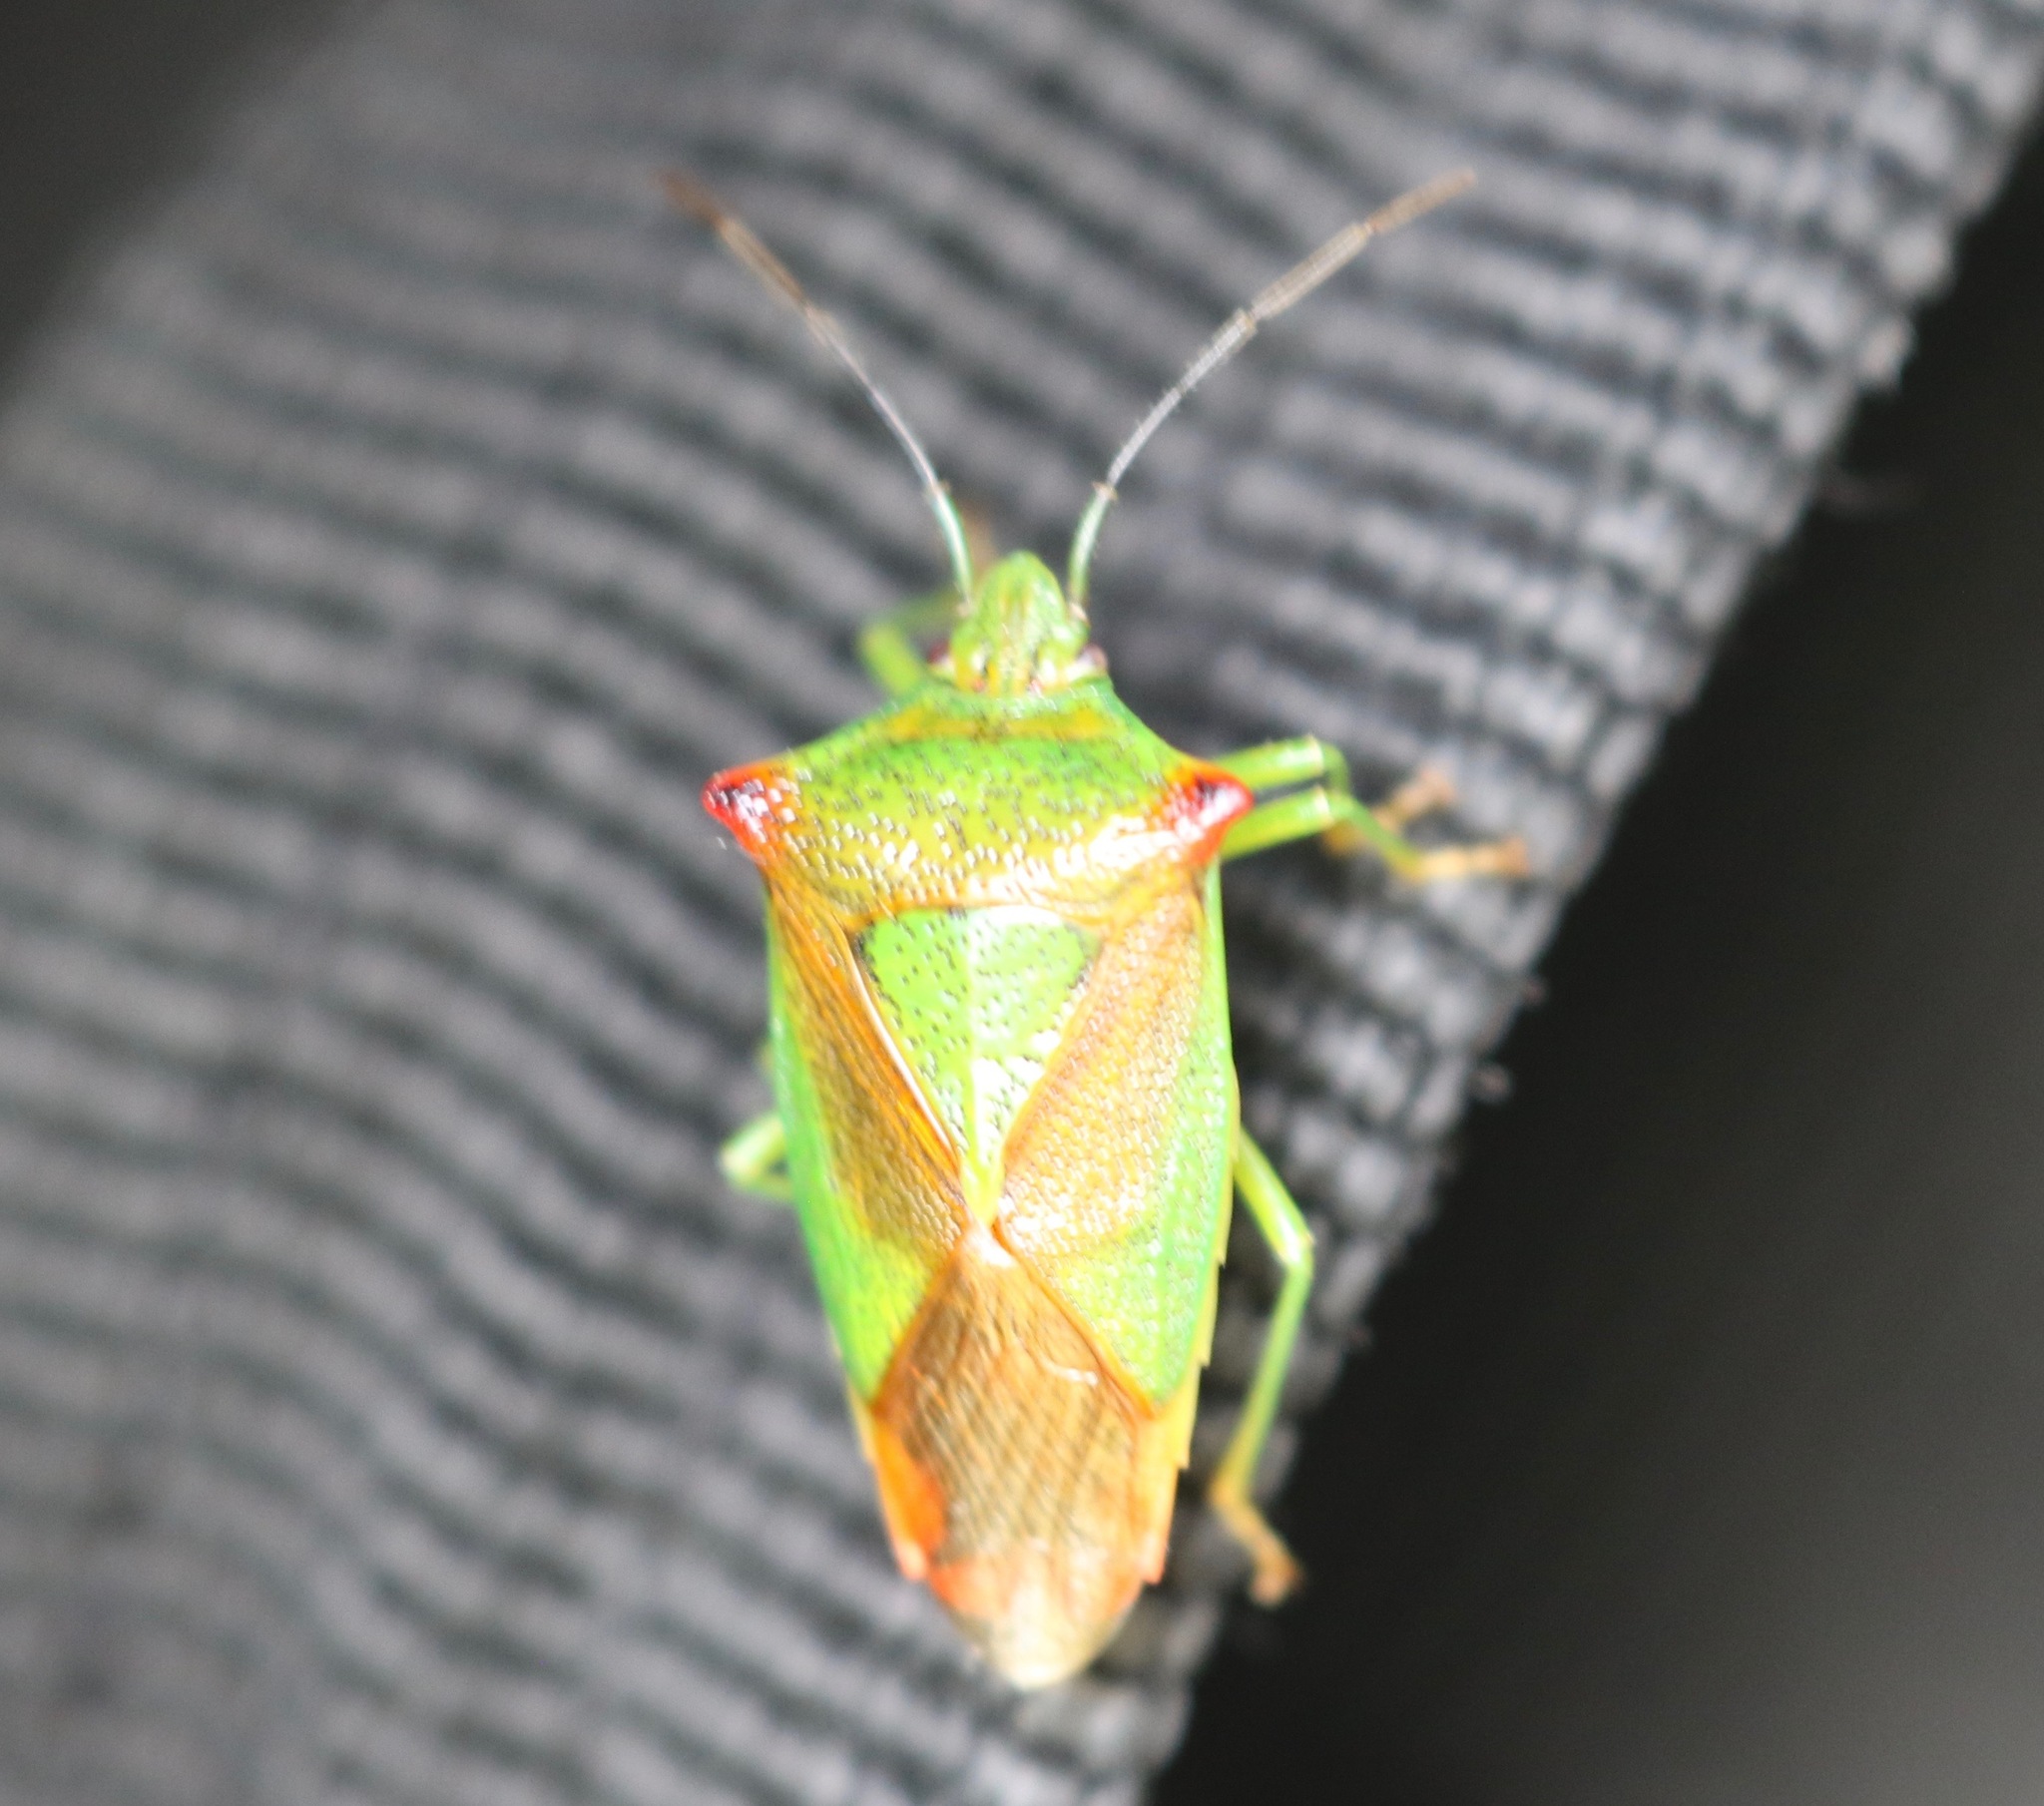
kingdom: Animalia
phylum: Arthropoda
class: Insecta
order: Hemiptera
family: Acanthosomatidae
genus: Acanthosoma
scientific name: Acanthosoma haemorrhoidale
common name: Hawthorn shieldbug
